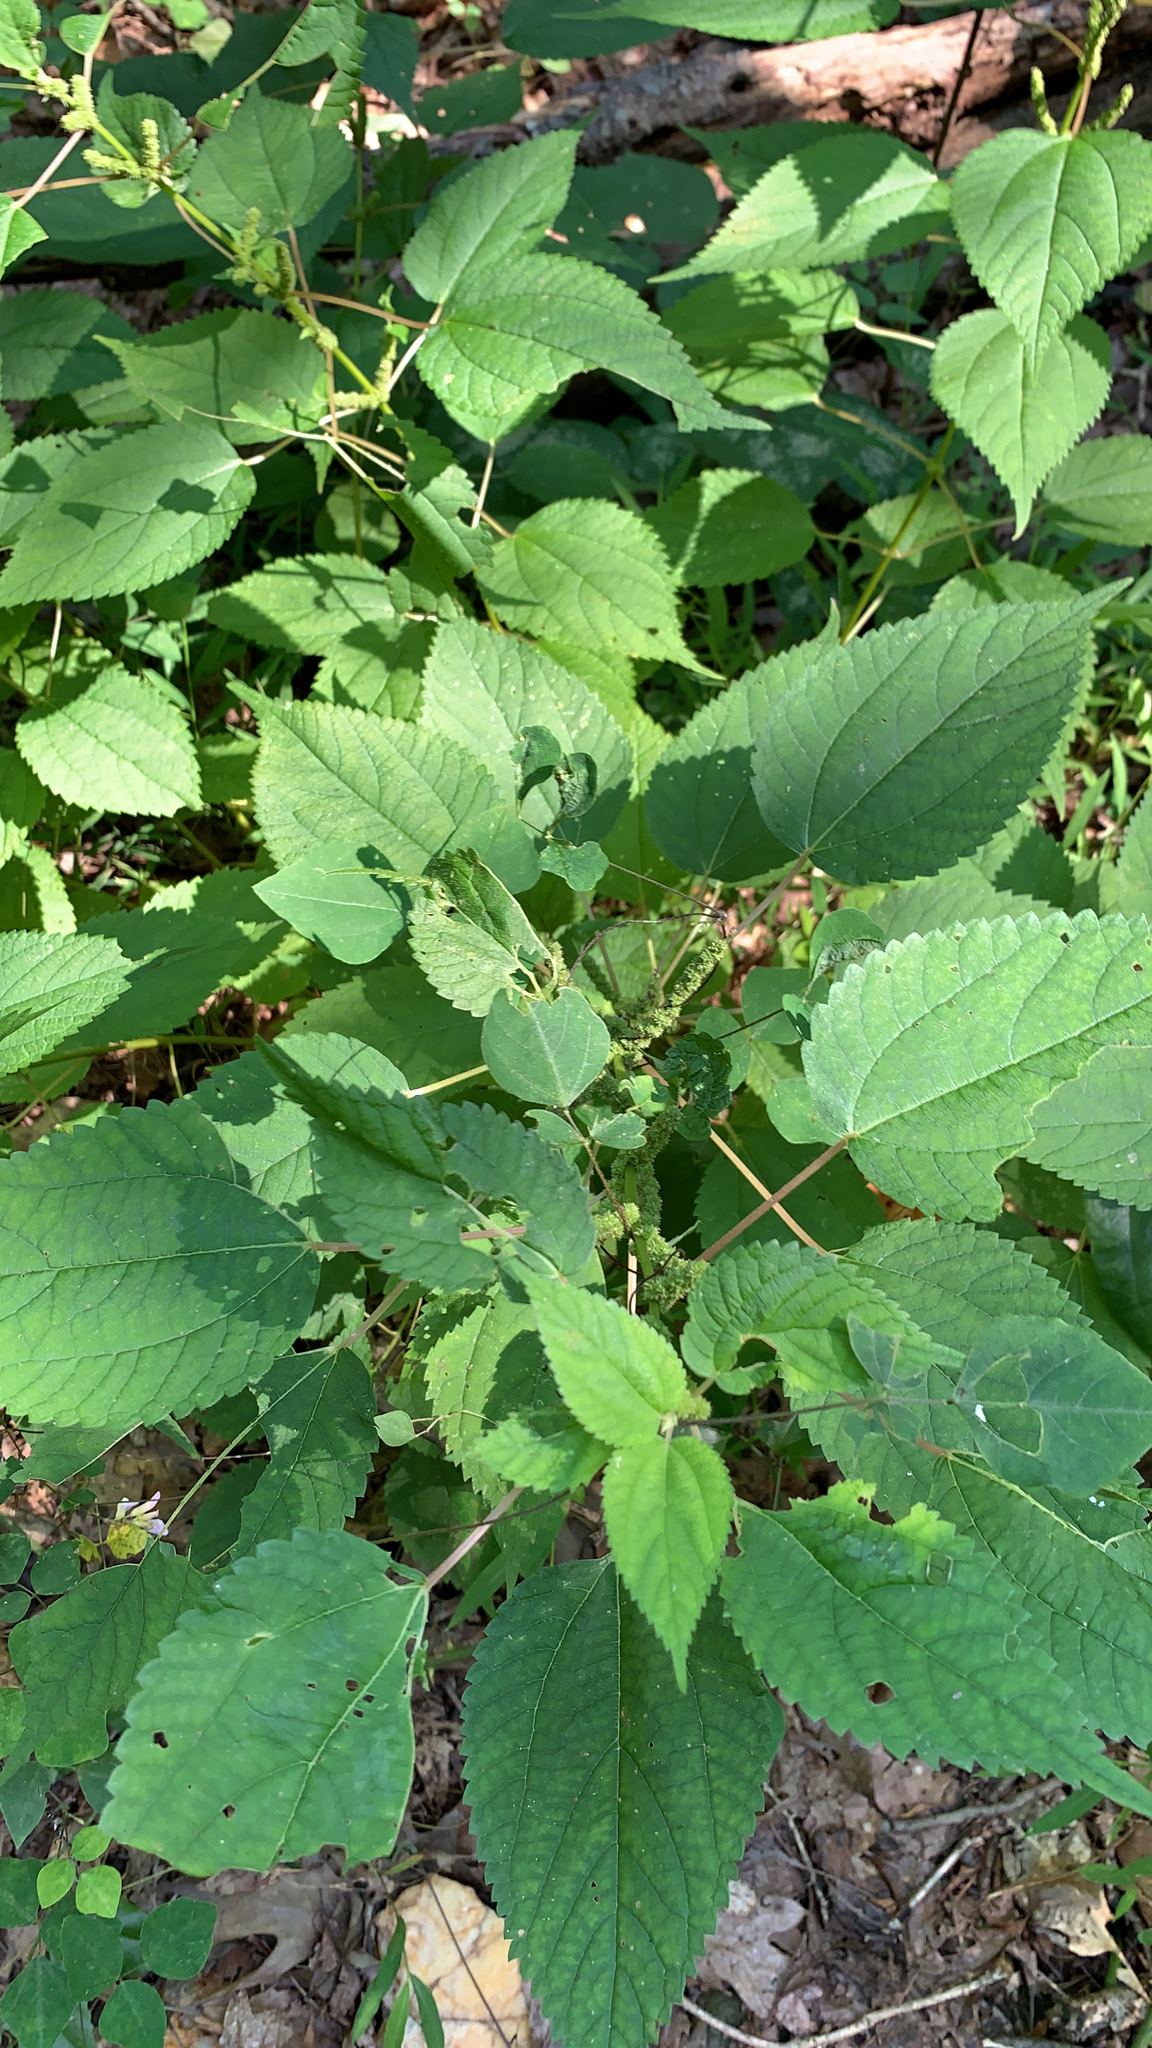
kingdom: Plantae
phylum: Tracheophyta
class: Magnoliopsida
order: Rosales
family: Urticaceae
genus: Boehmeria
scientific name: Boehmeria cylindrica
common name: Bog-hemp
